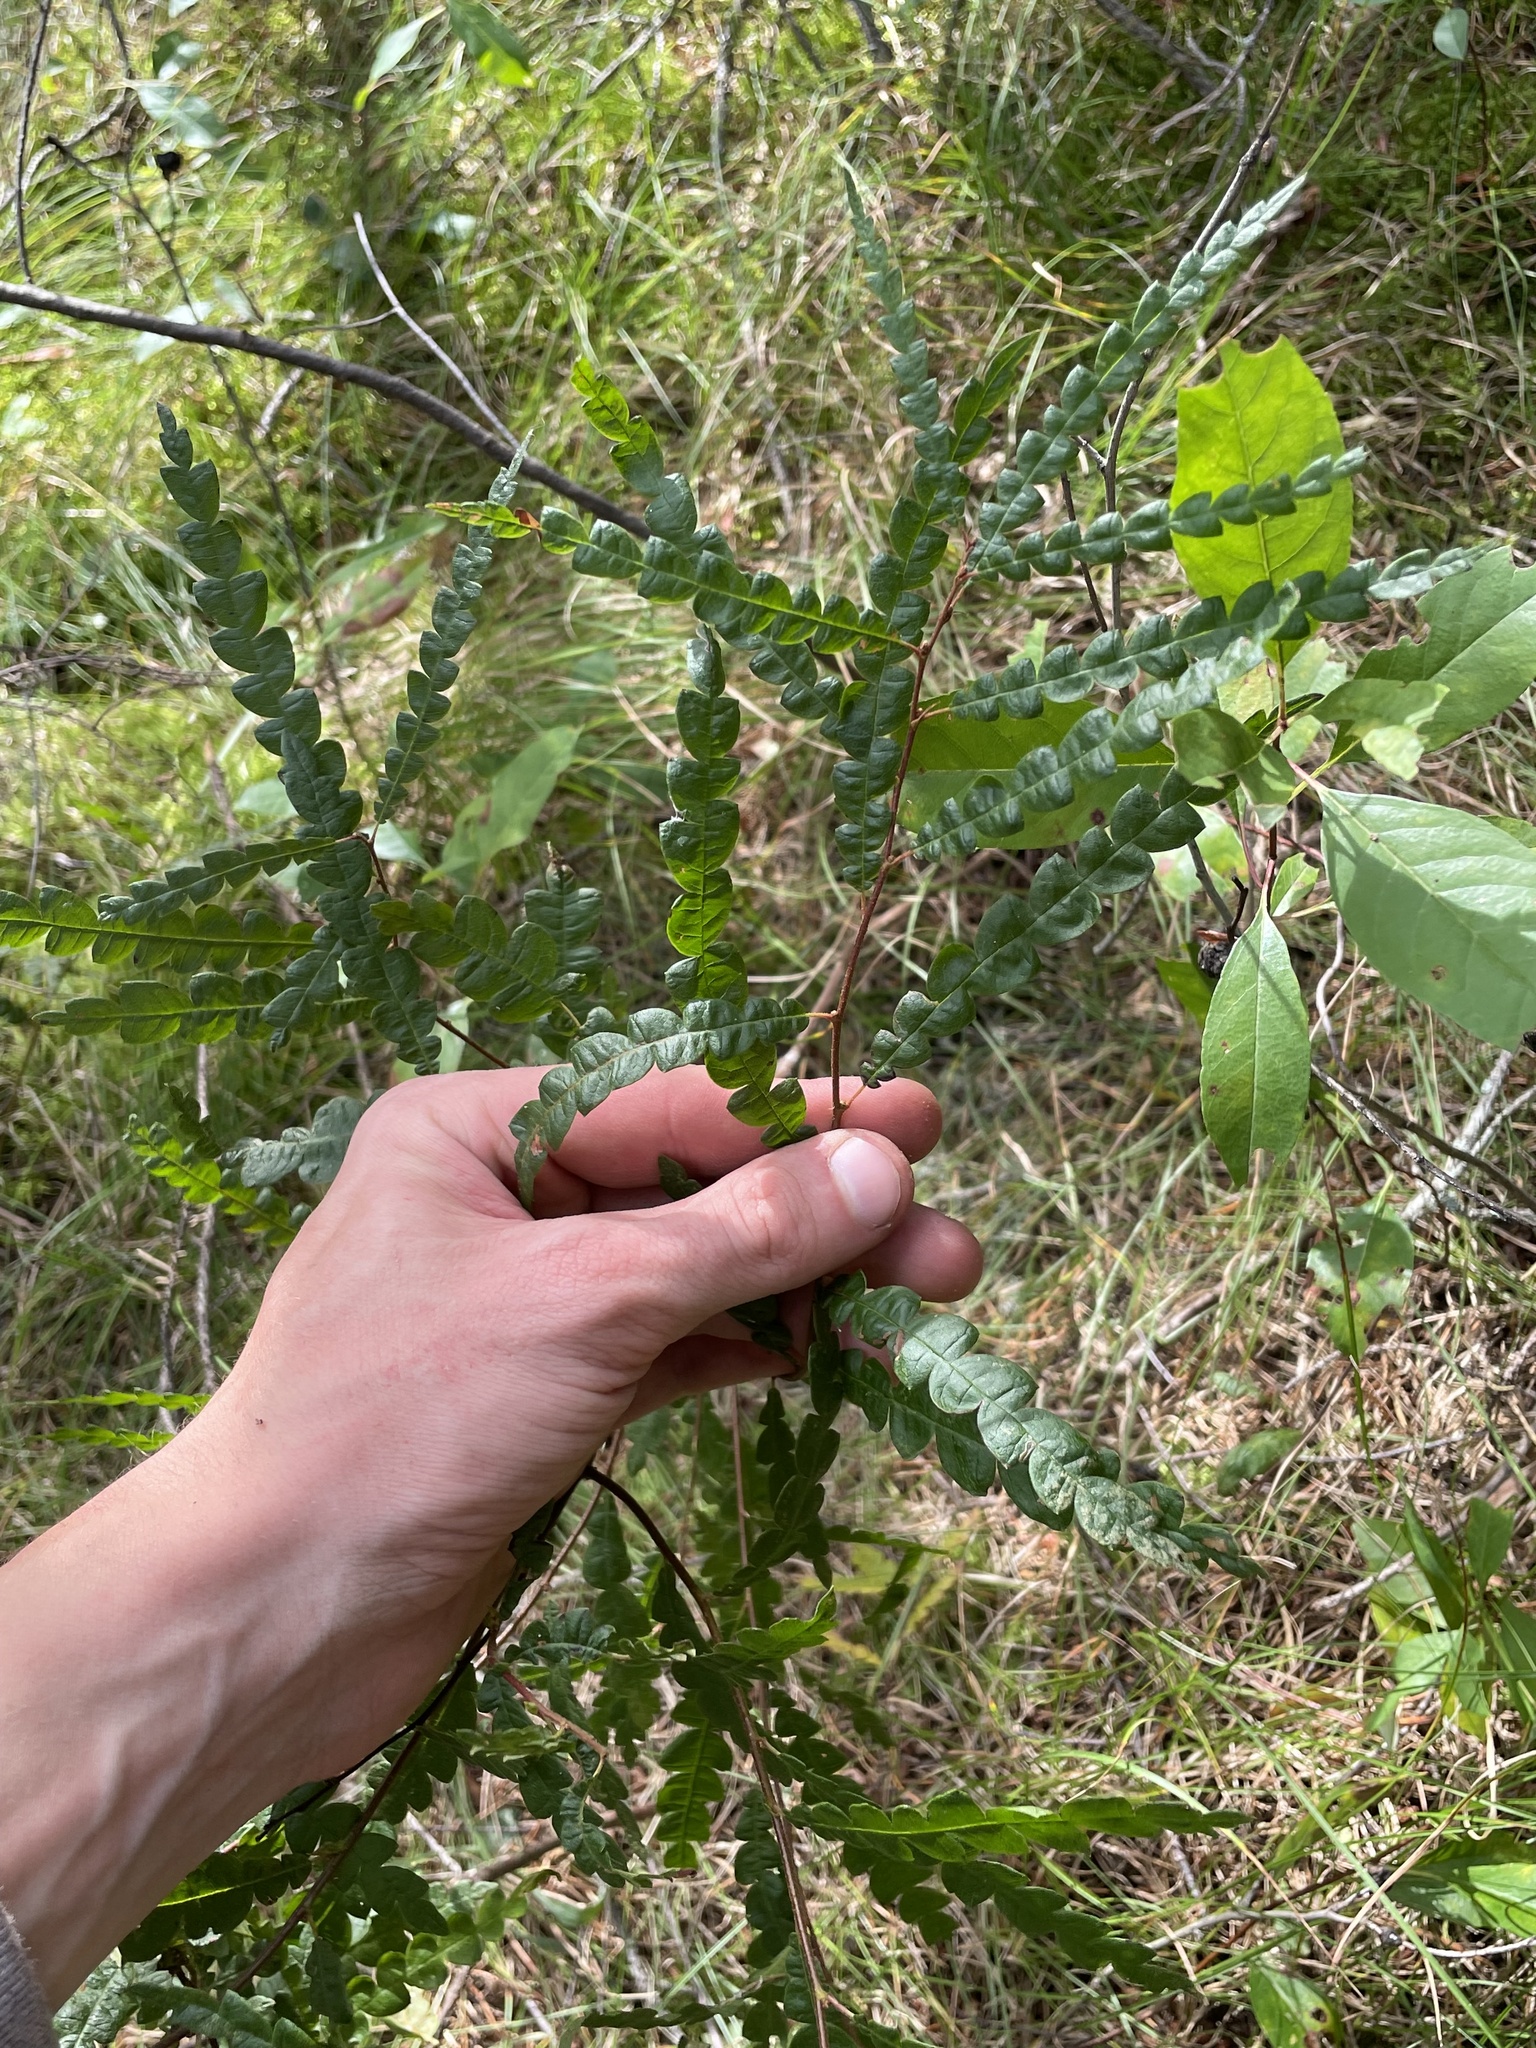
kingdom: Plantae
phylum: Tracheophyta
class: Magnoliopsida
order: Fagales
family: Myricaceae
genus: Comptonia
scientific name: Comptonia peregrina
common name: Sweet-fern
